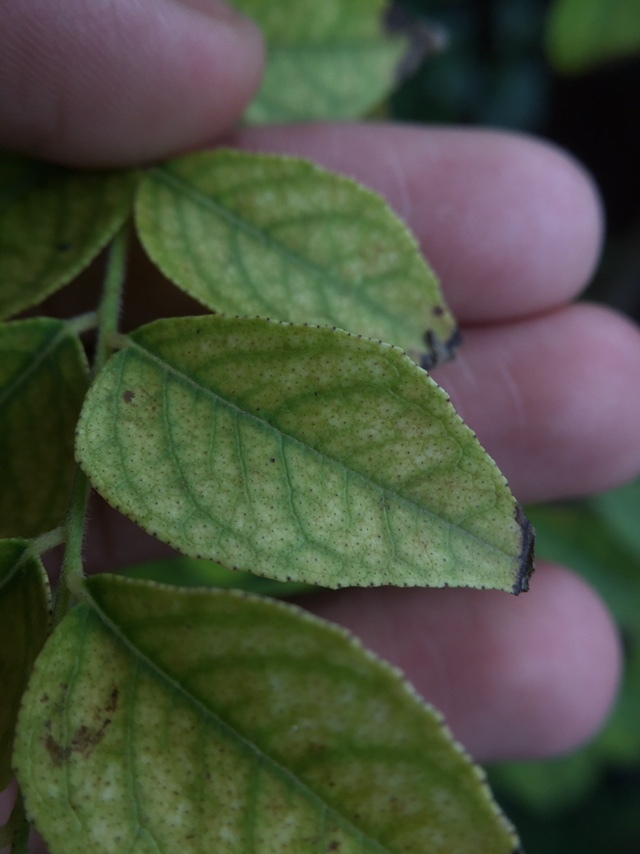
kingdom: Plantae
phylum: Tracheophyta
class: Magnoliopsida
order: Sapindales
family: Rutaceae
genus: Murraya
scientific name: Murraya koenigii
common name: Curry-plant
